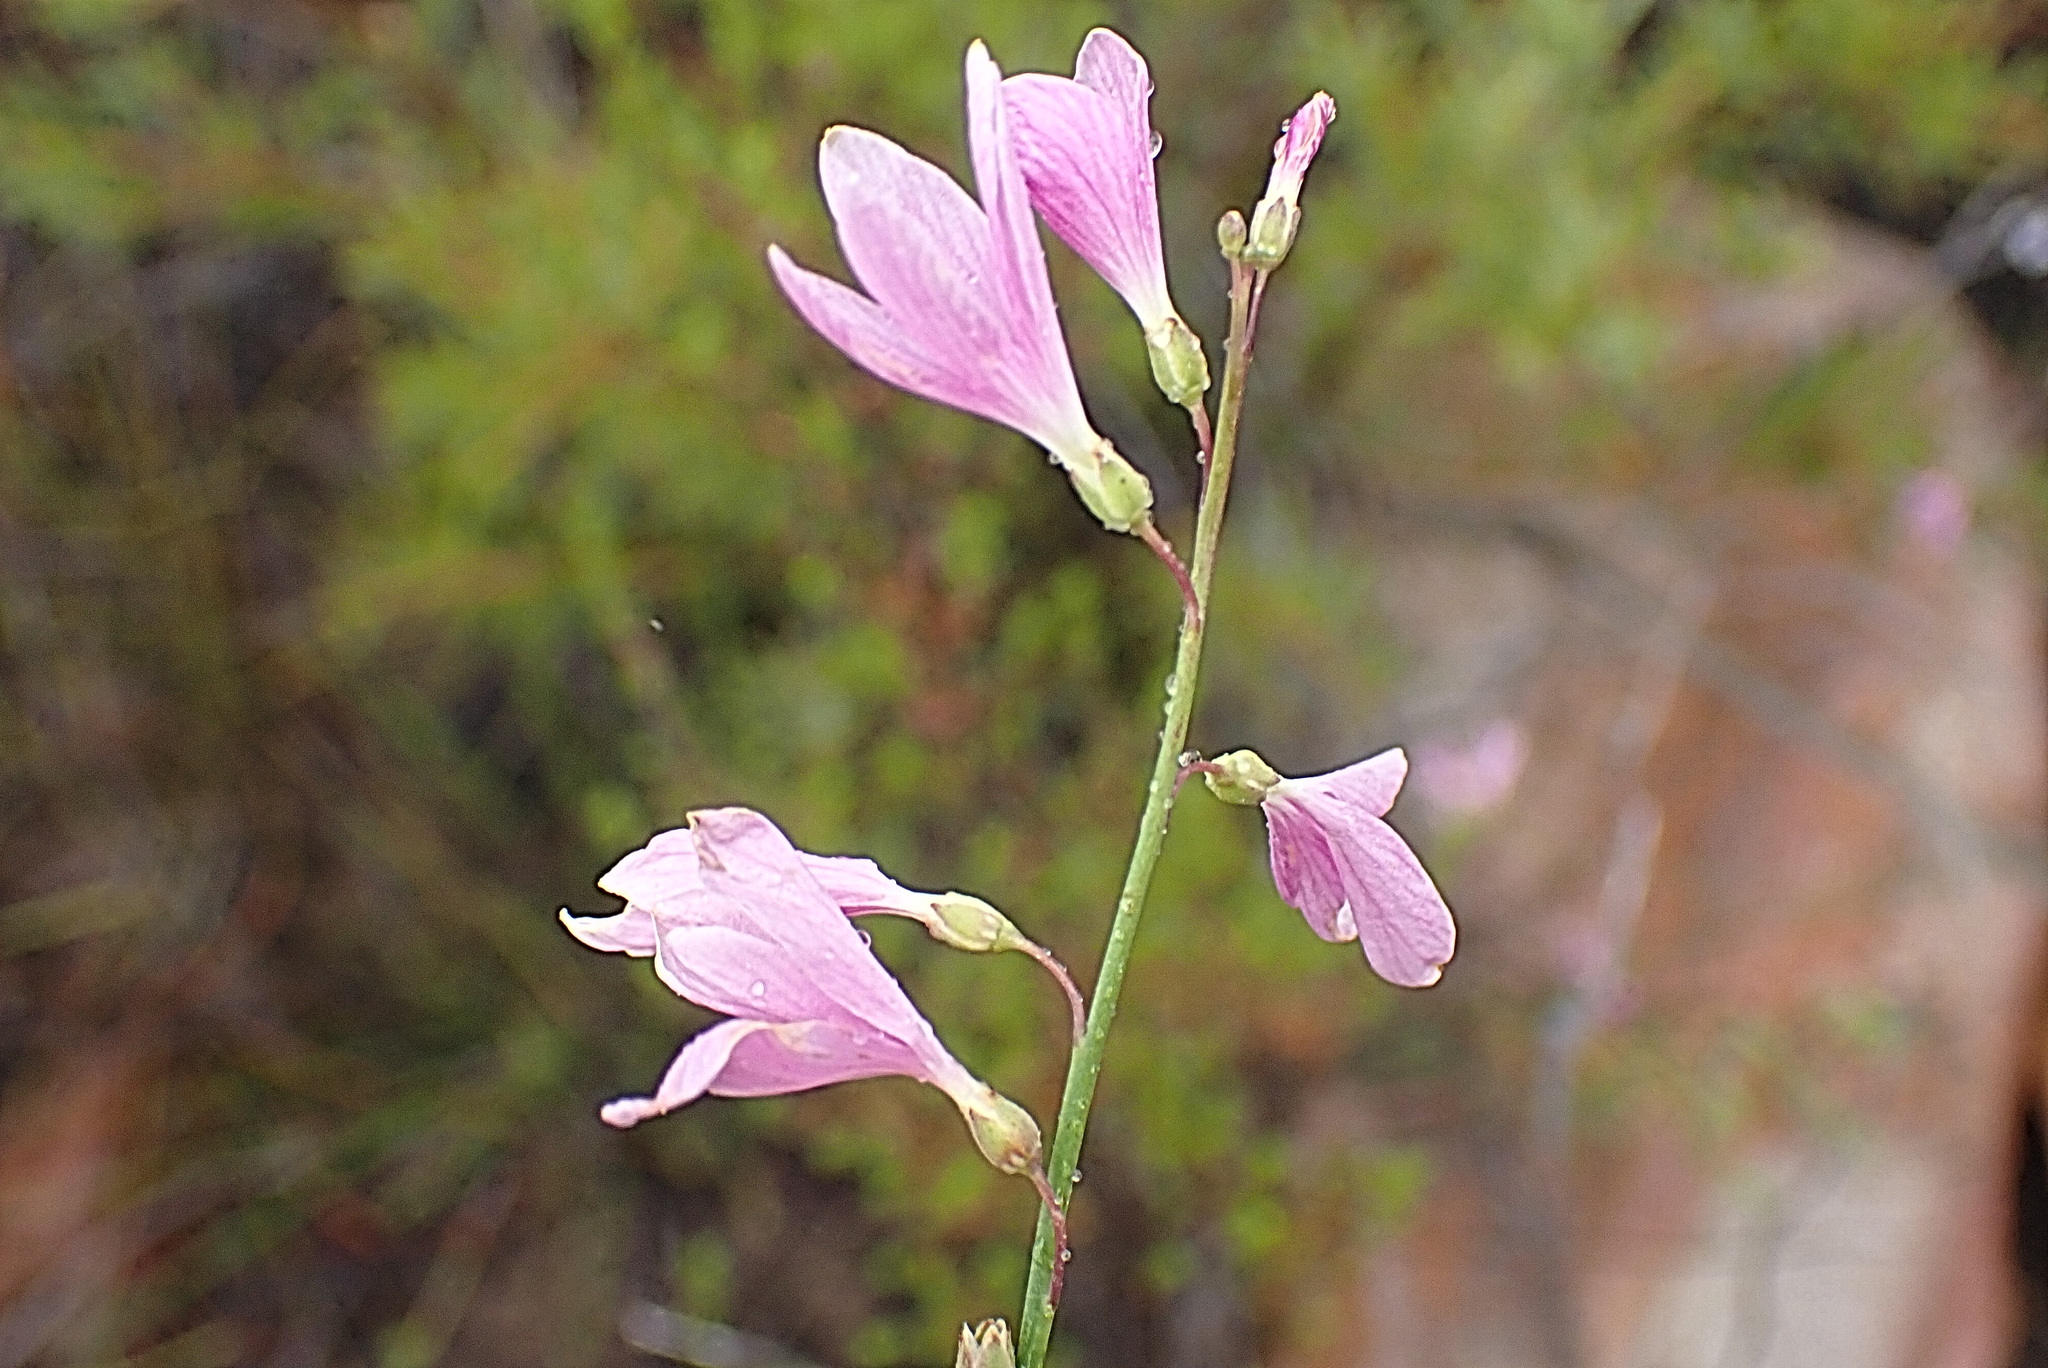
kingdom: Plantae
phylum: Tracheophyta
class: Magnoliopsida
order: Brassicales
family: Brassicaceae
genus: Heliophila
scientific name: Heliophila juncea
